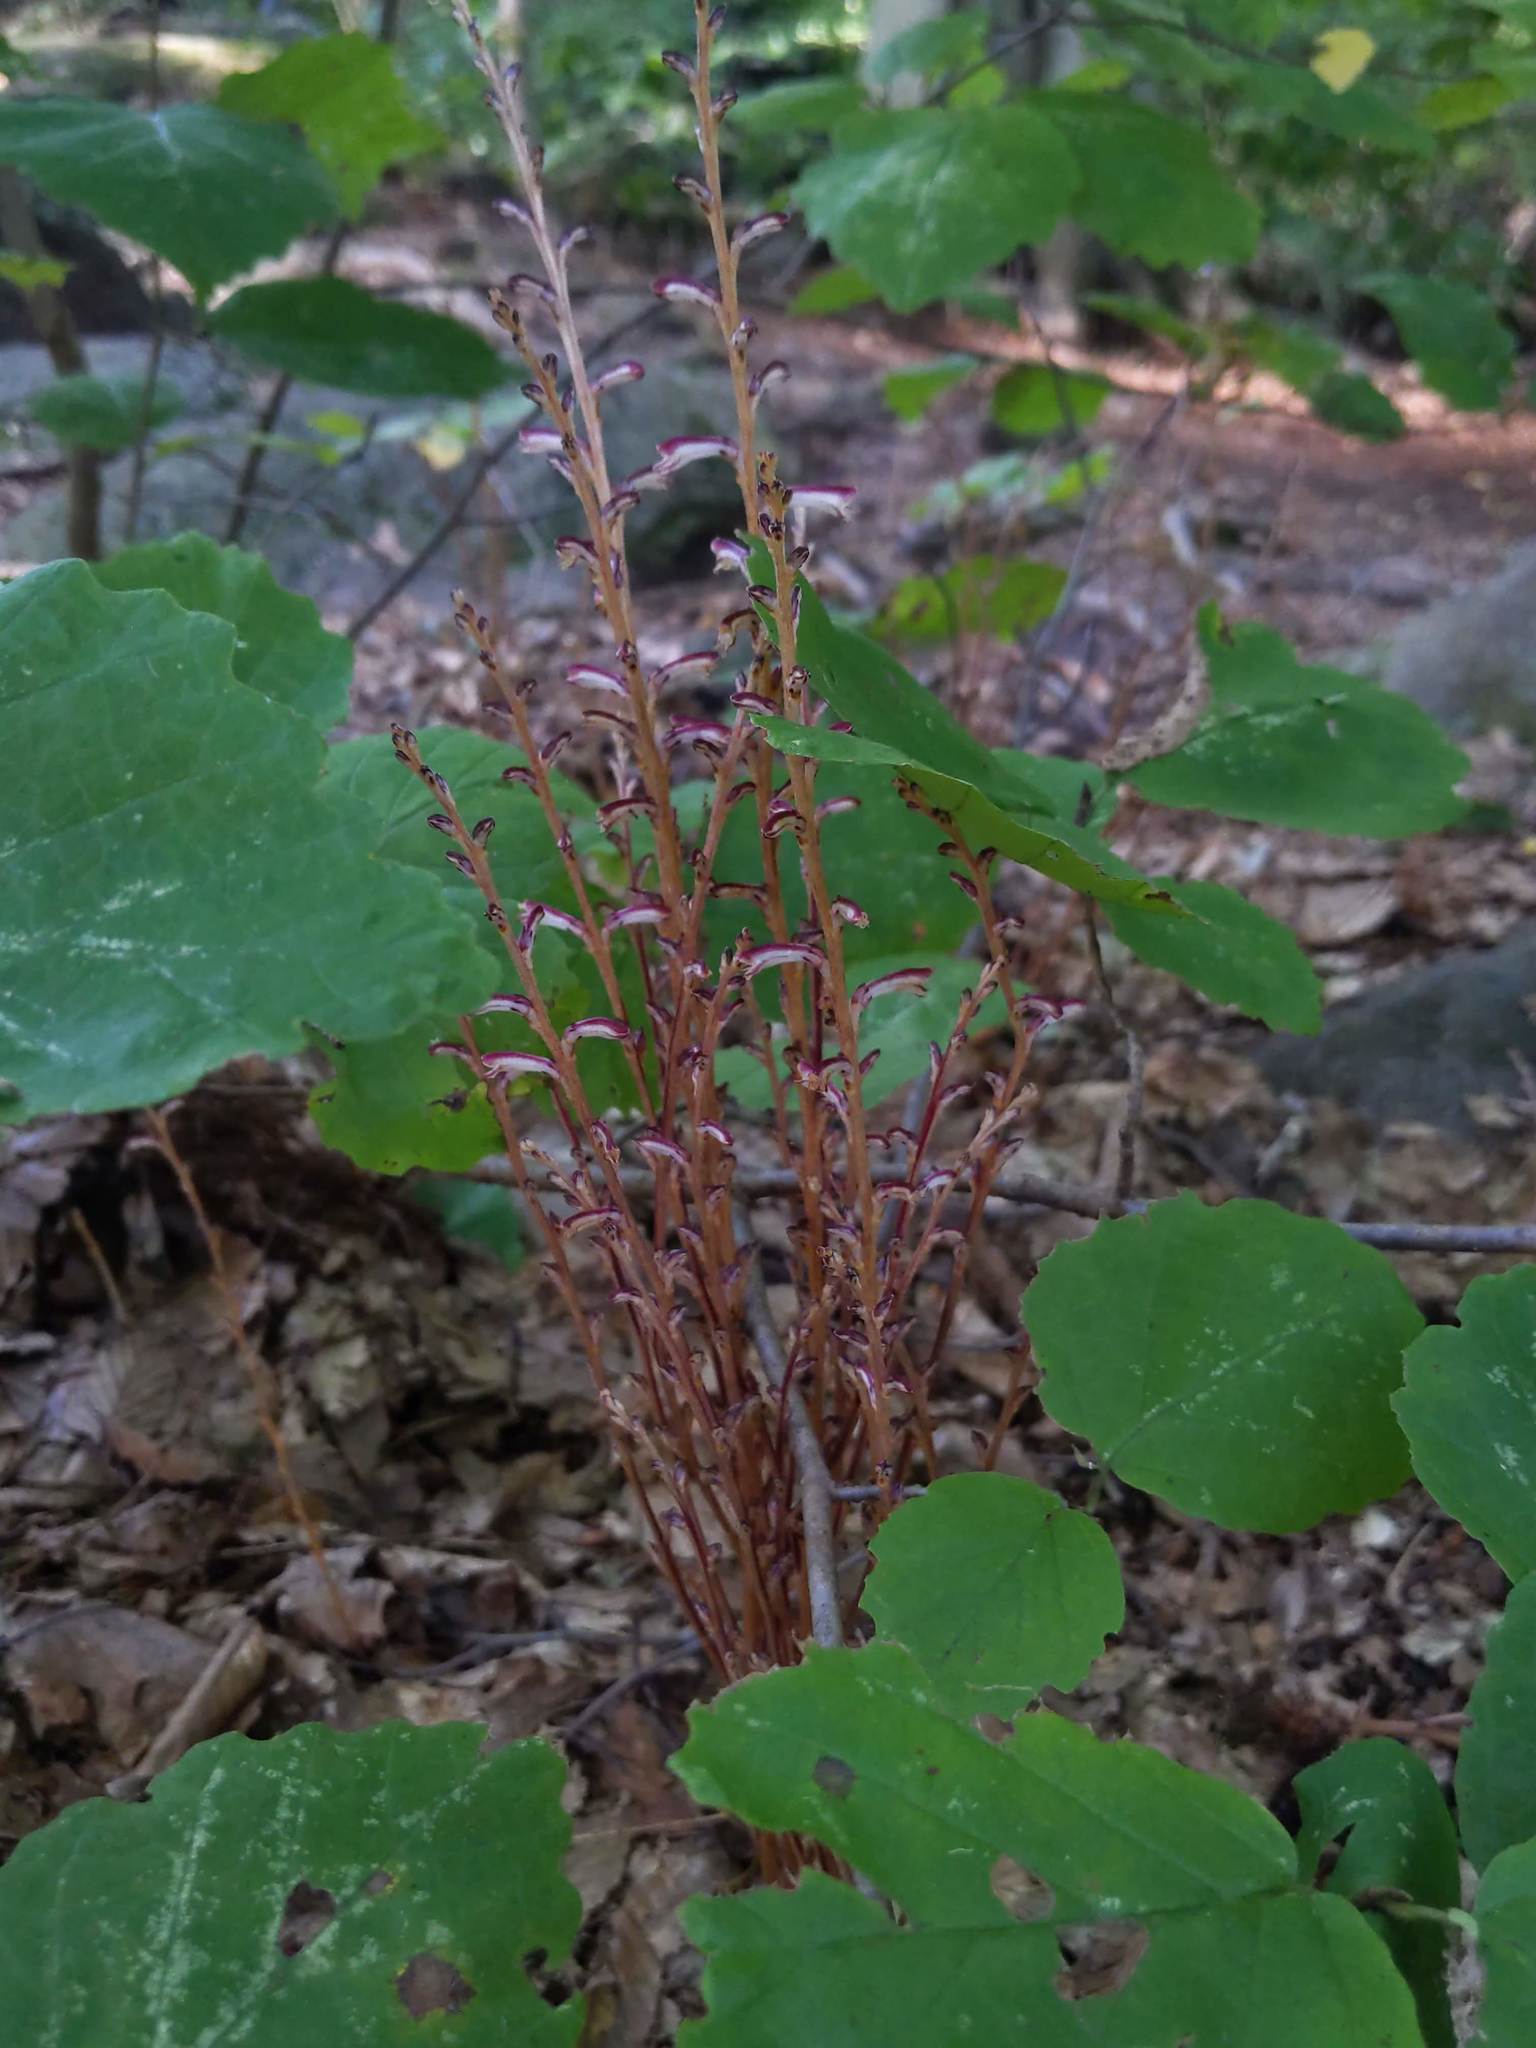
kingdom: Plantae
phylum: Tracheophyta
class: Magnoliopsida
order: Lamiales
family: Orobanchaceae
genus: Epifagus
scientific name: Epifagus virginiana
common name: Beechdrops
